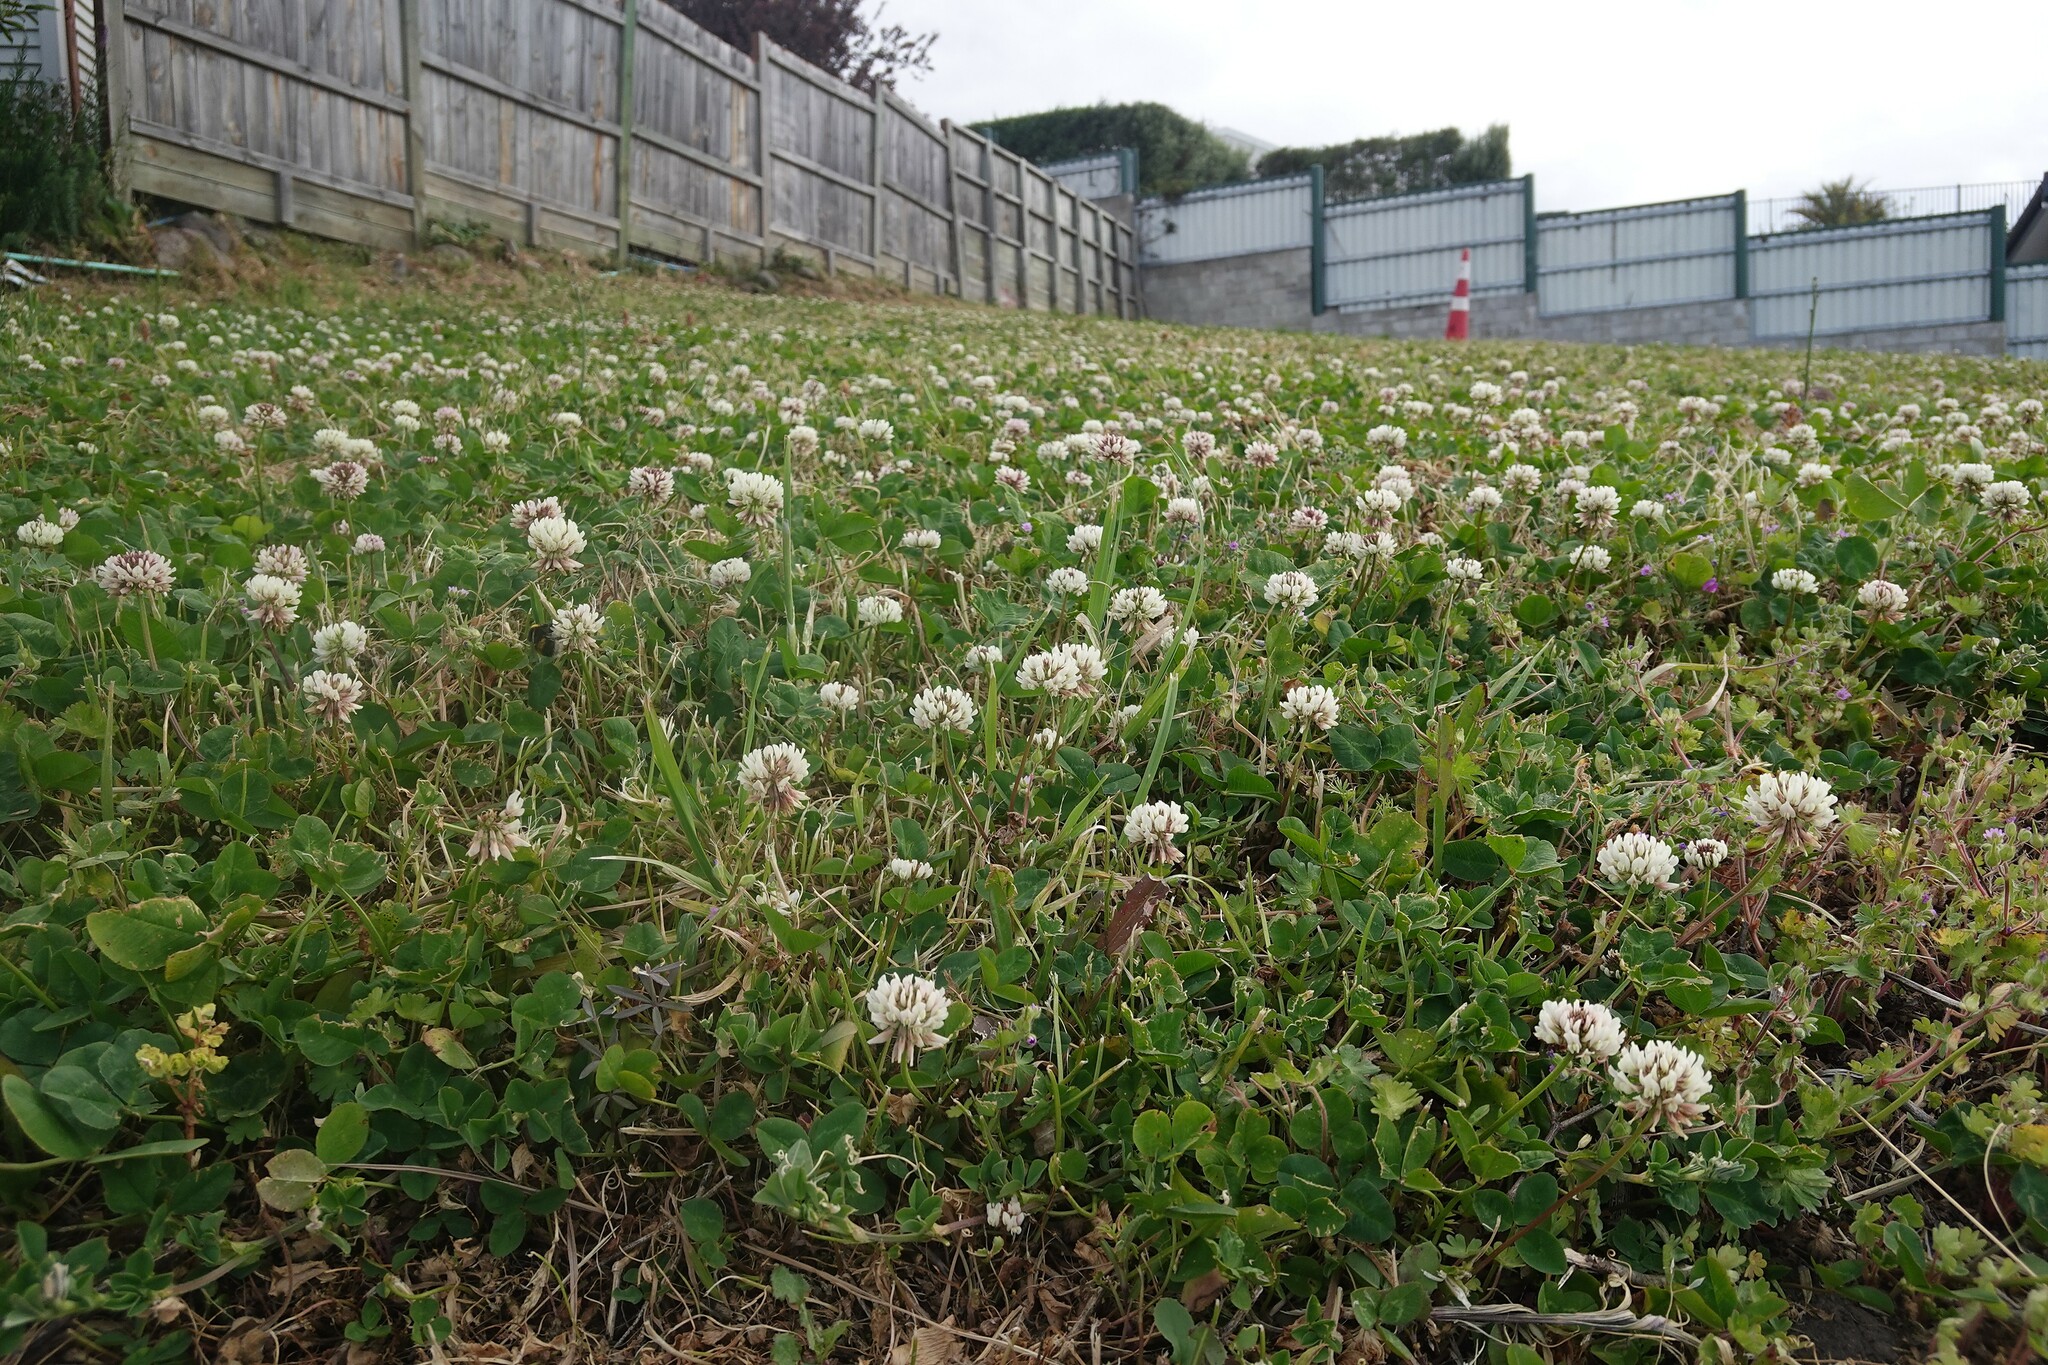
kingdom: Plantae
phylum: Tracheophyta
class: Magnoliopsida
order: Fabales
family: Fabaceae
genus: Trifolium
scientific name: Trifolium repens
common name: White clover
